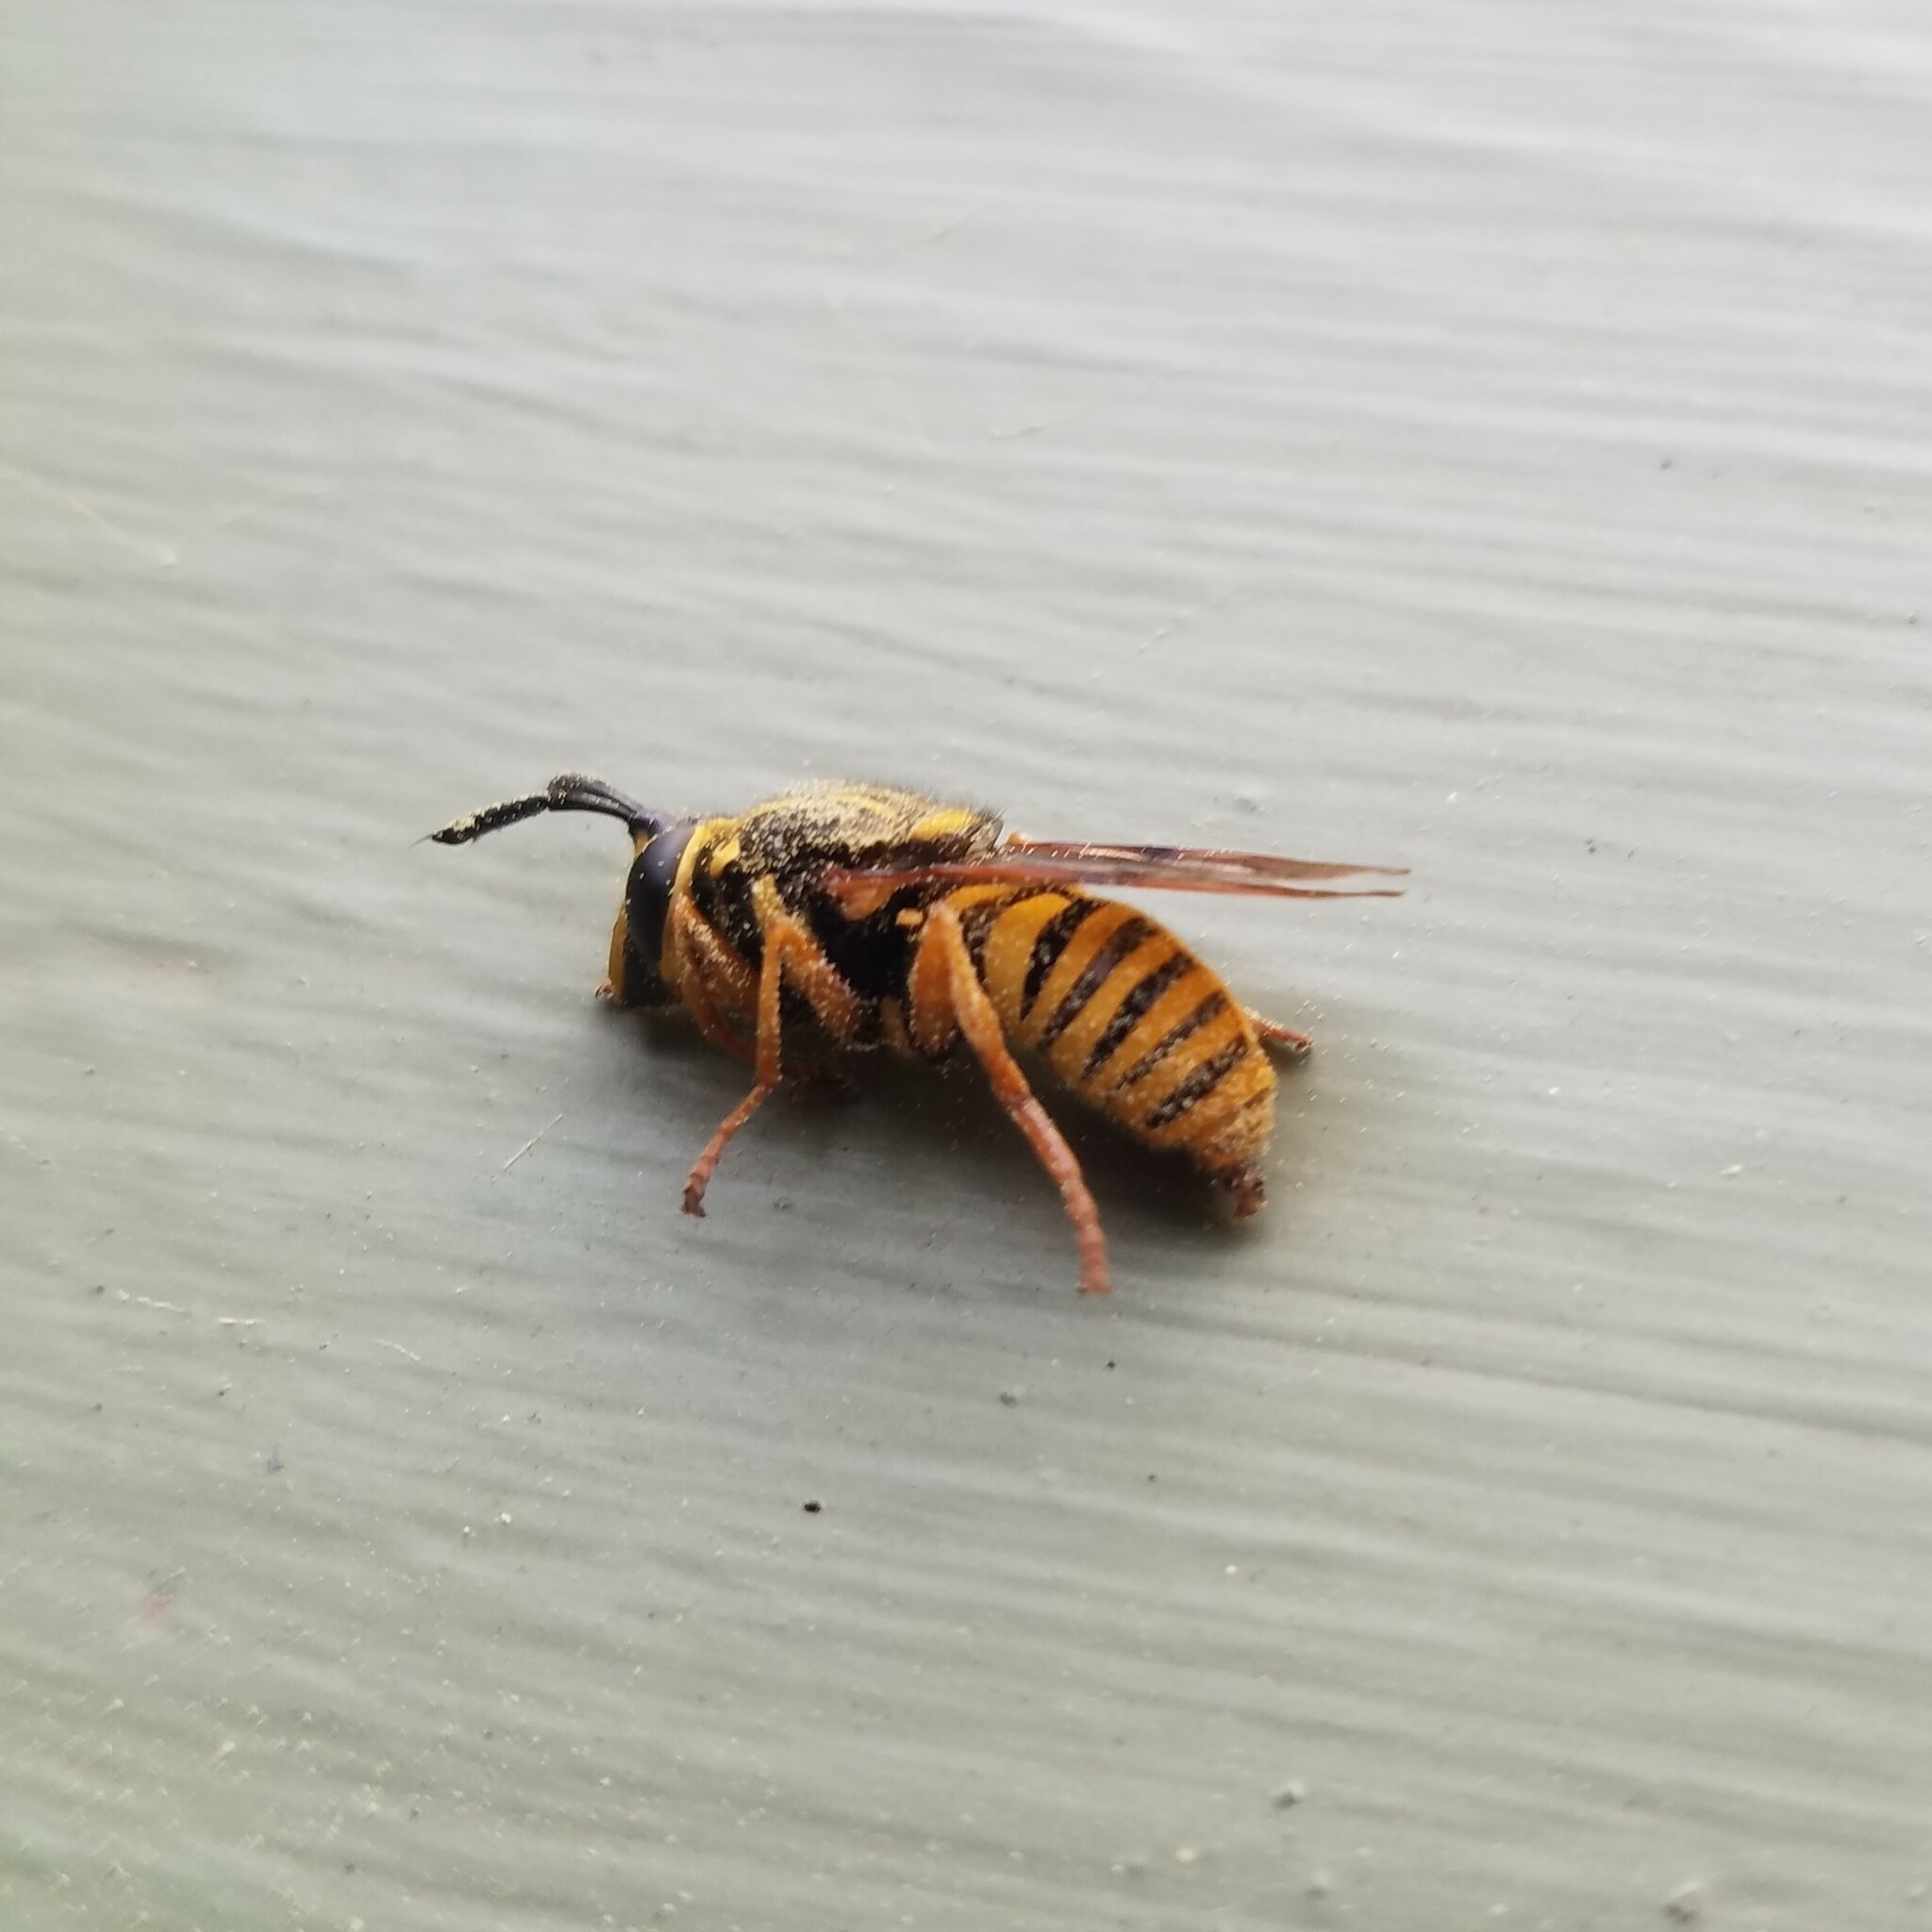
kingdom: Animalia
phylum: Arthropoda
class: Insecta
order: Diptera
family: Syrphidae
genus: Sphecomyia
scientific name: Sphecomyia vittata
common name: Long-horned yellowjacket fly
